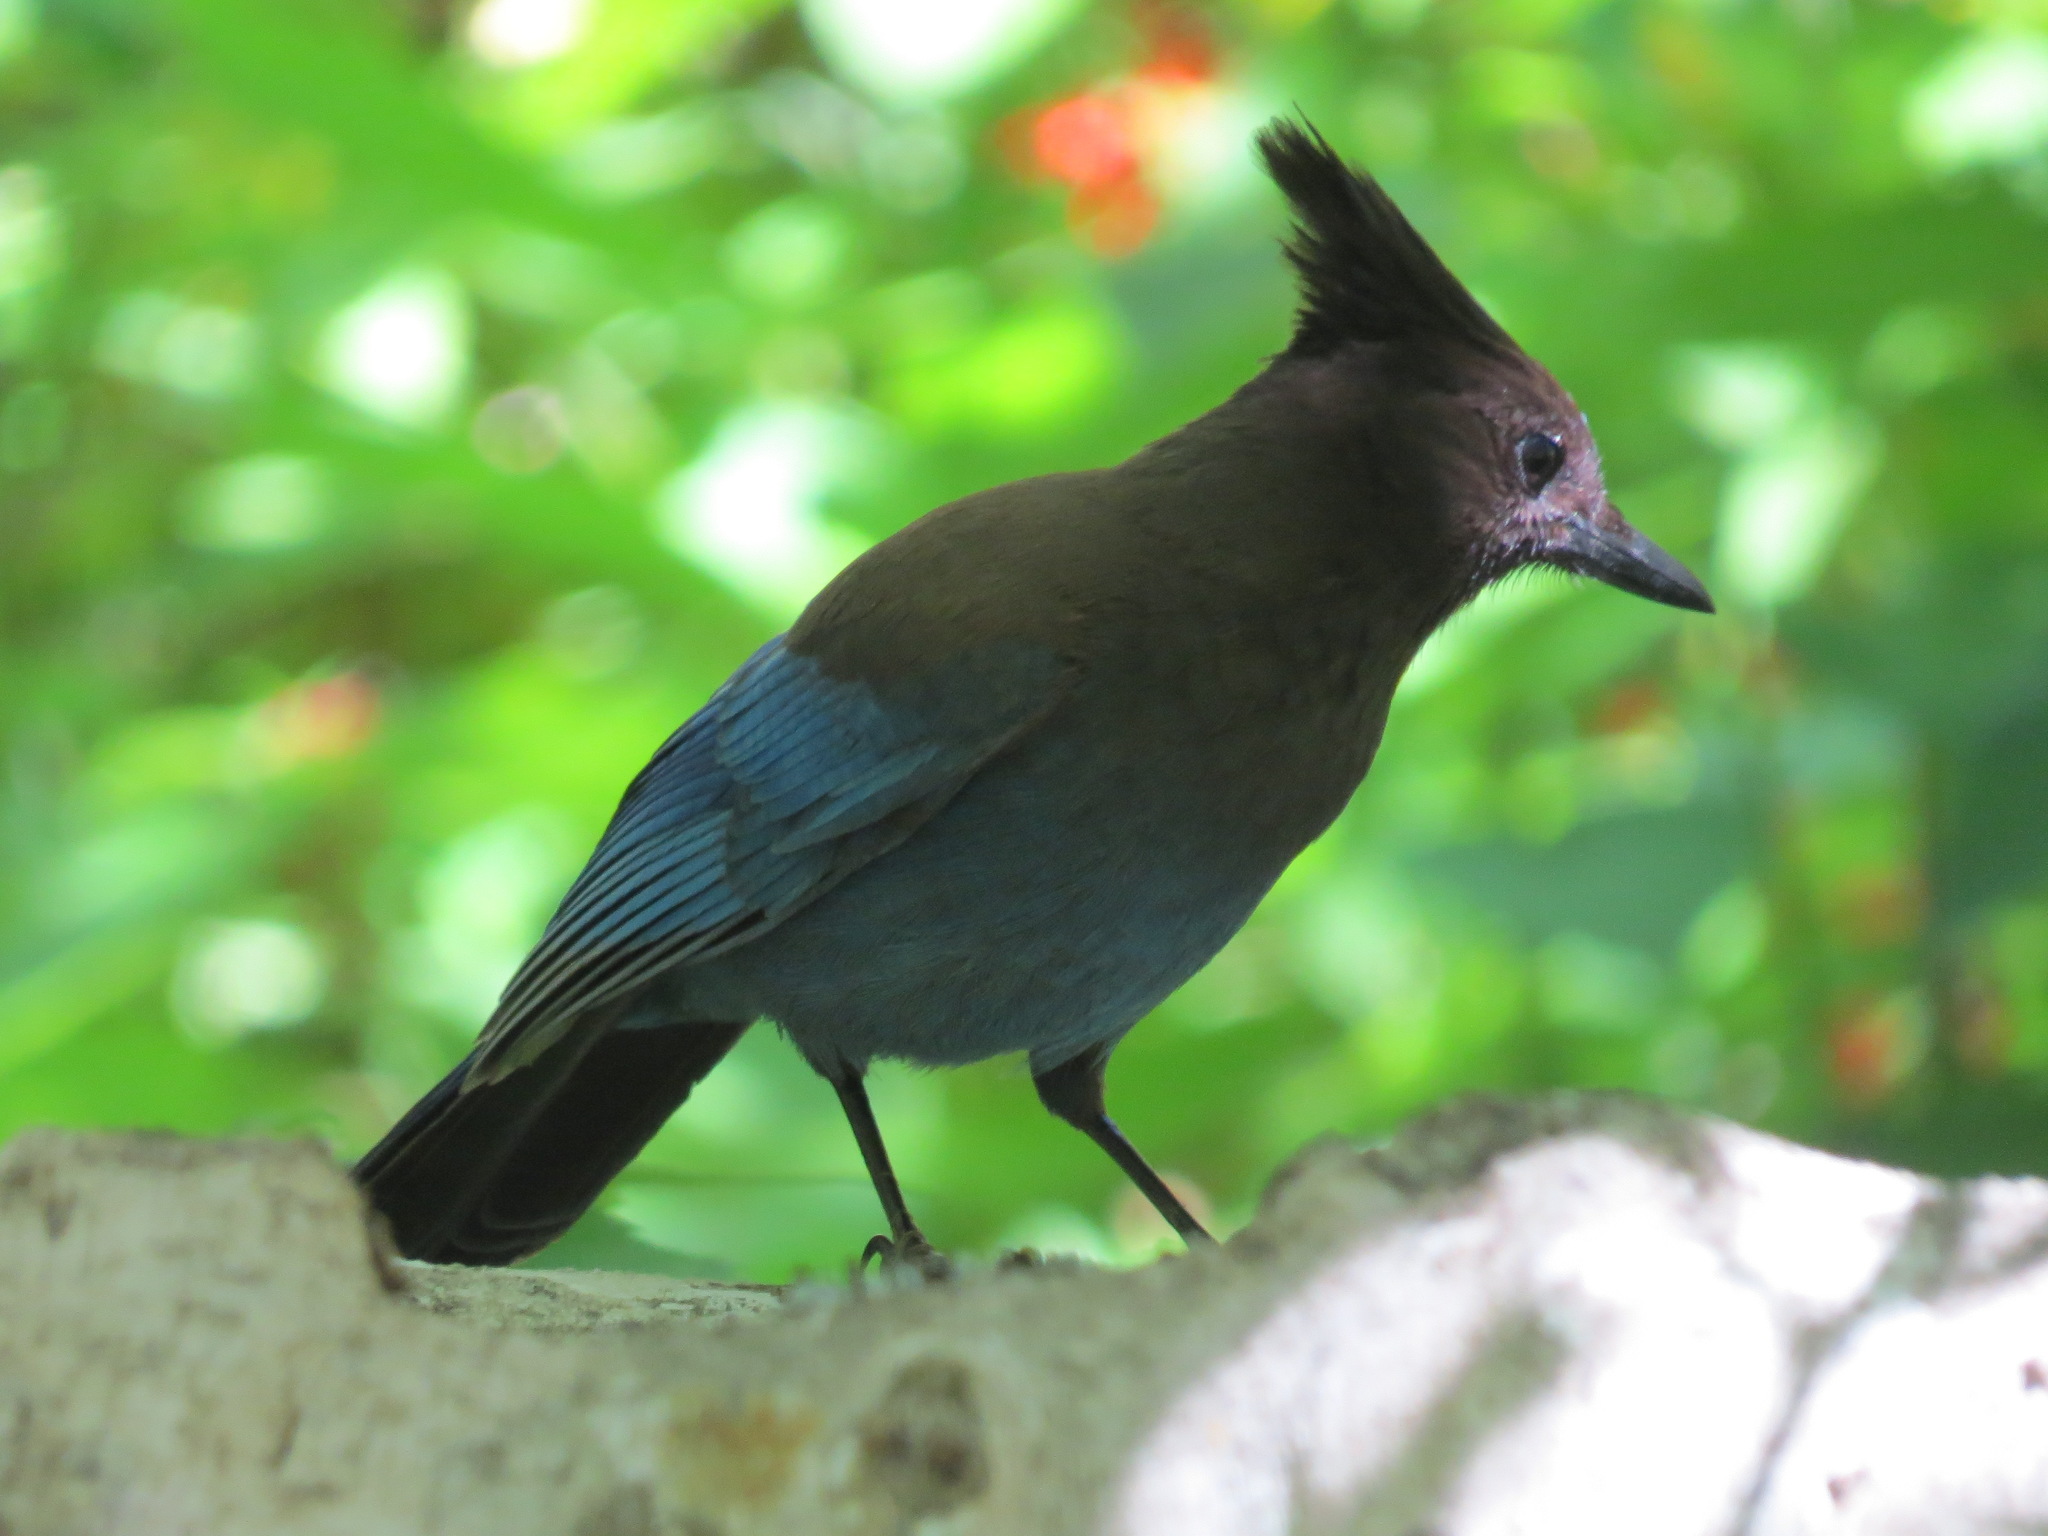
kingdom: Animalia
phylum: Chordata
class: Aves
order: Passeriformes
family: Corvidae
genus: Cyanocitta
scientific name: Cyanocitta stelleri
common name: Steller's jay
